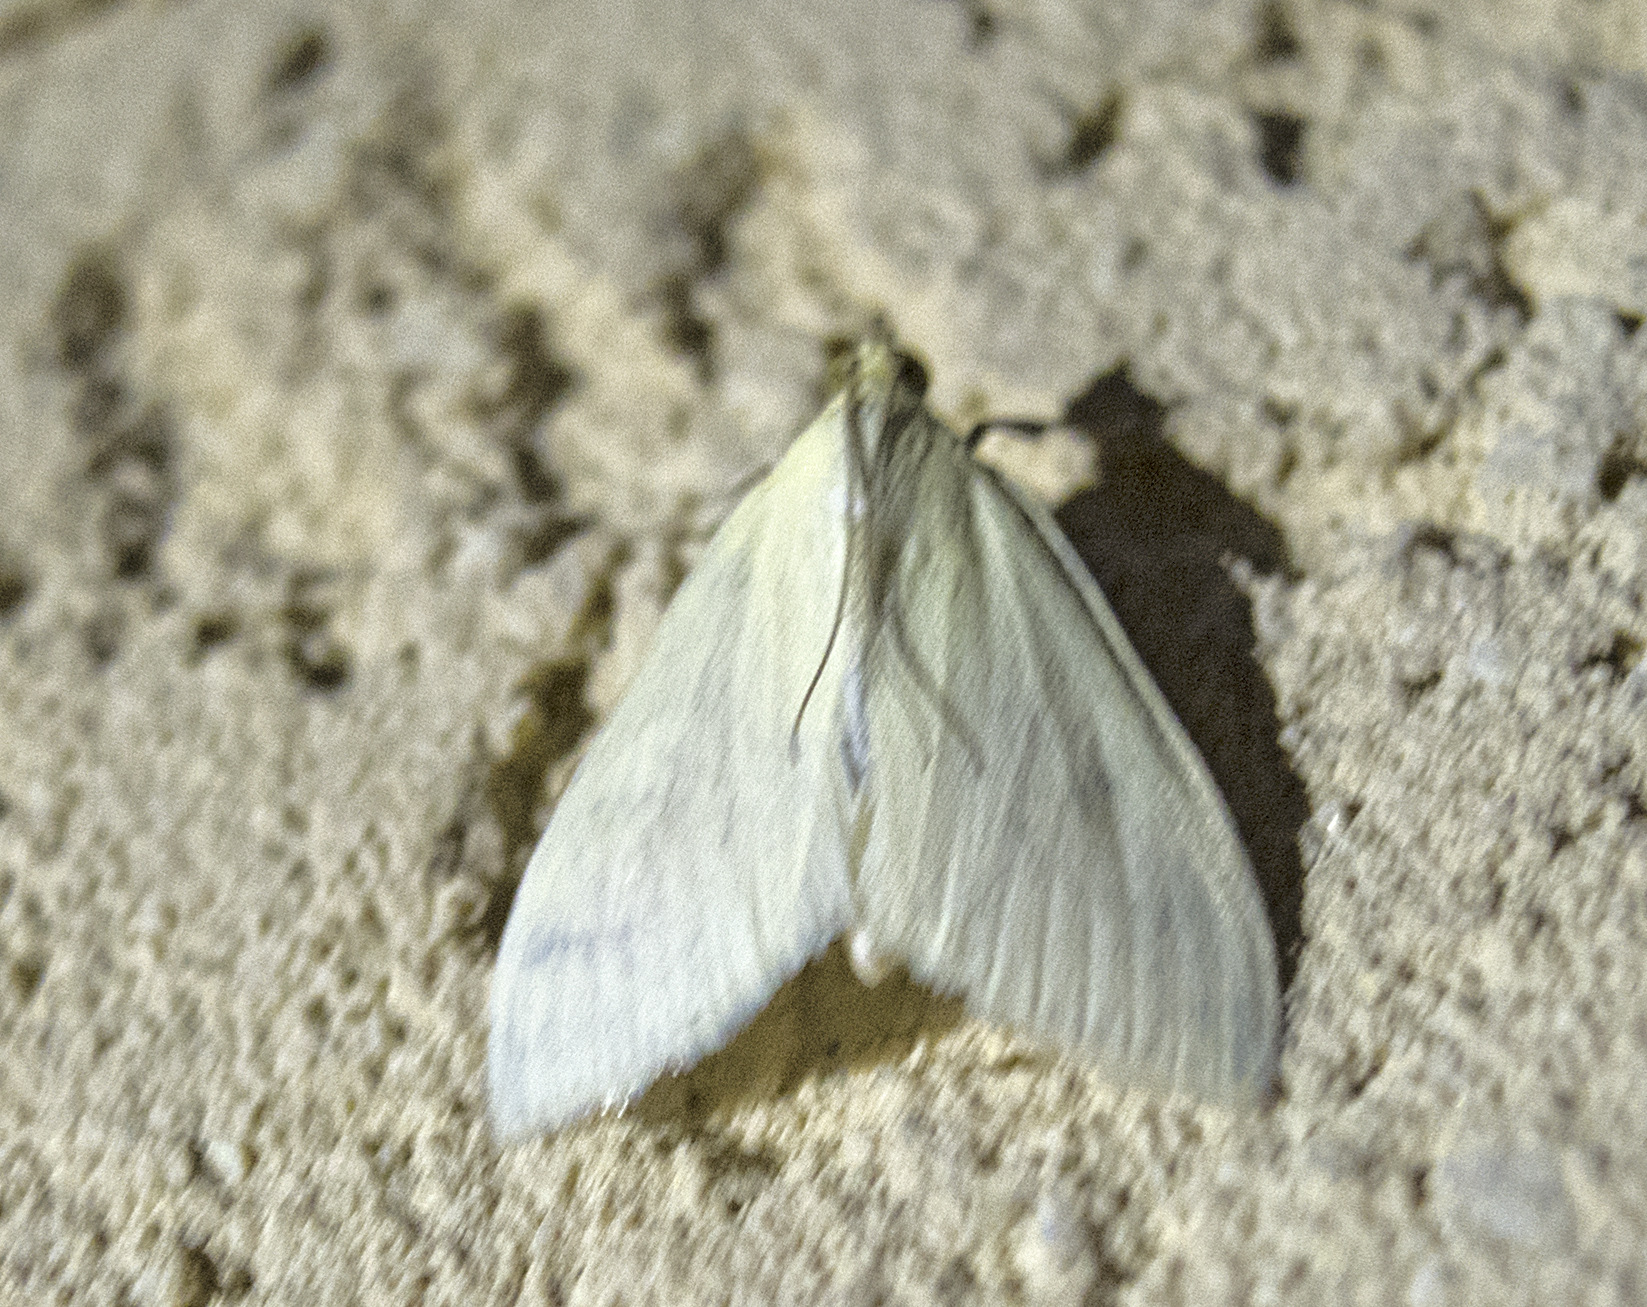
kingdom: Animalia
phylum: Arthropoda
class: Insecta
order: Lepidoptera
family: Crambidae
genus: Sitochroa
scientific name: Sitochroa palealis
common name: Greenish-yellow sitochroa moth
